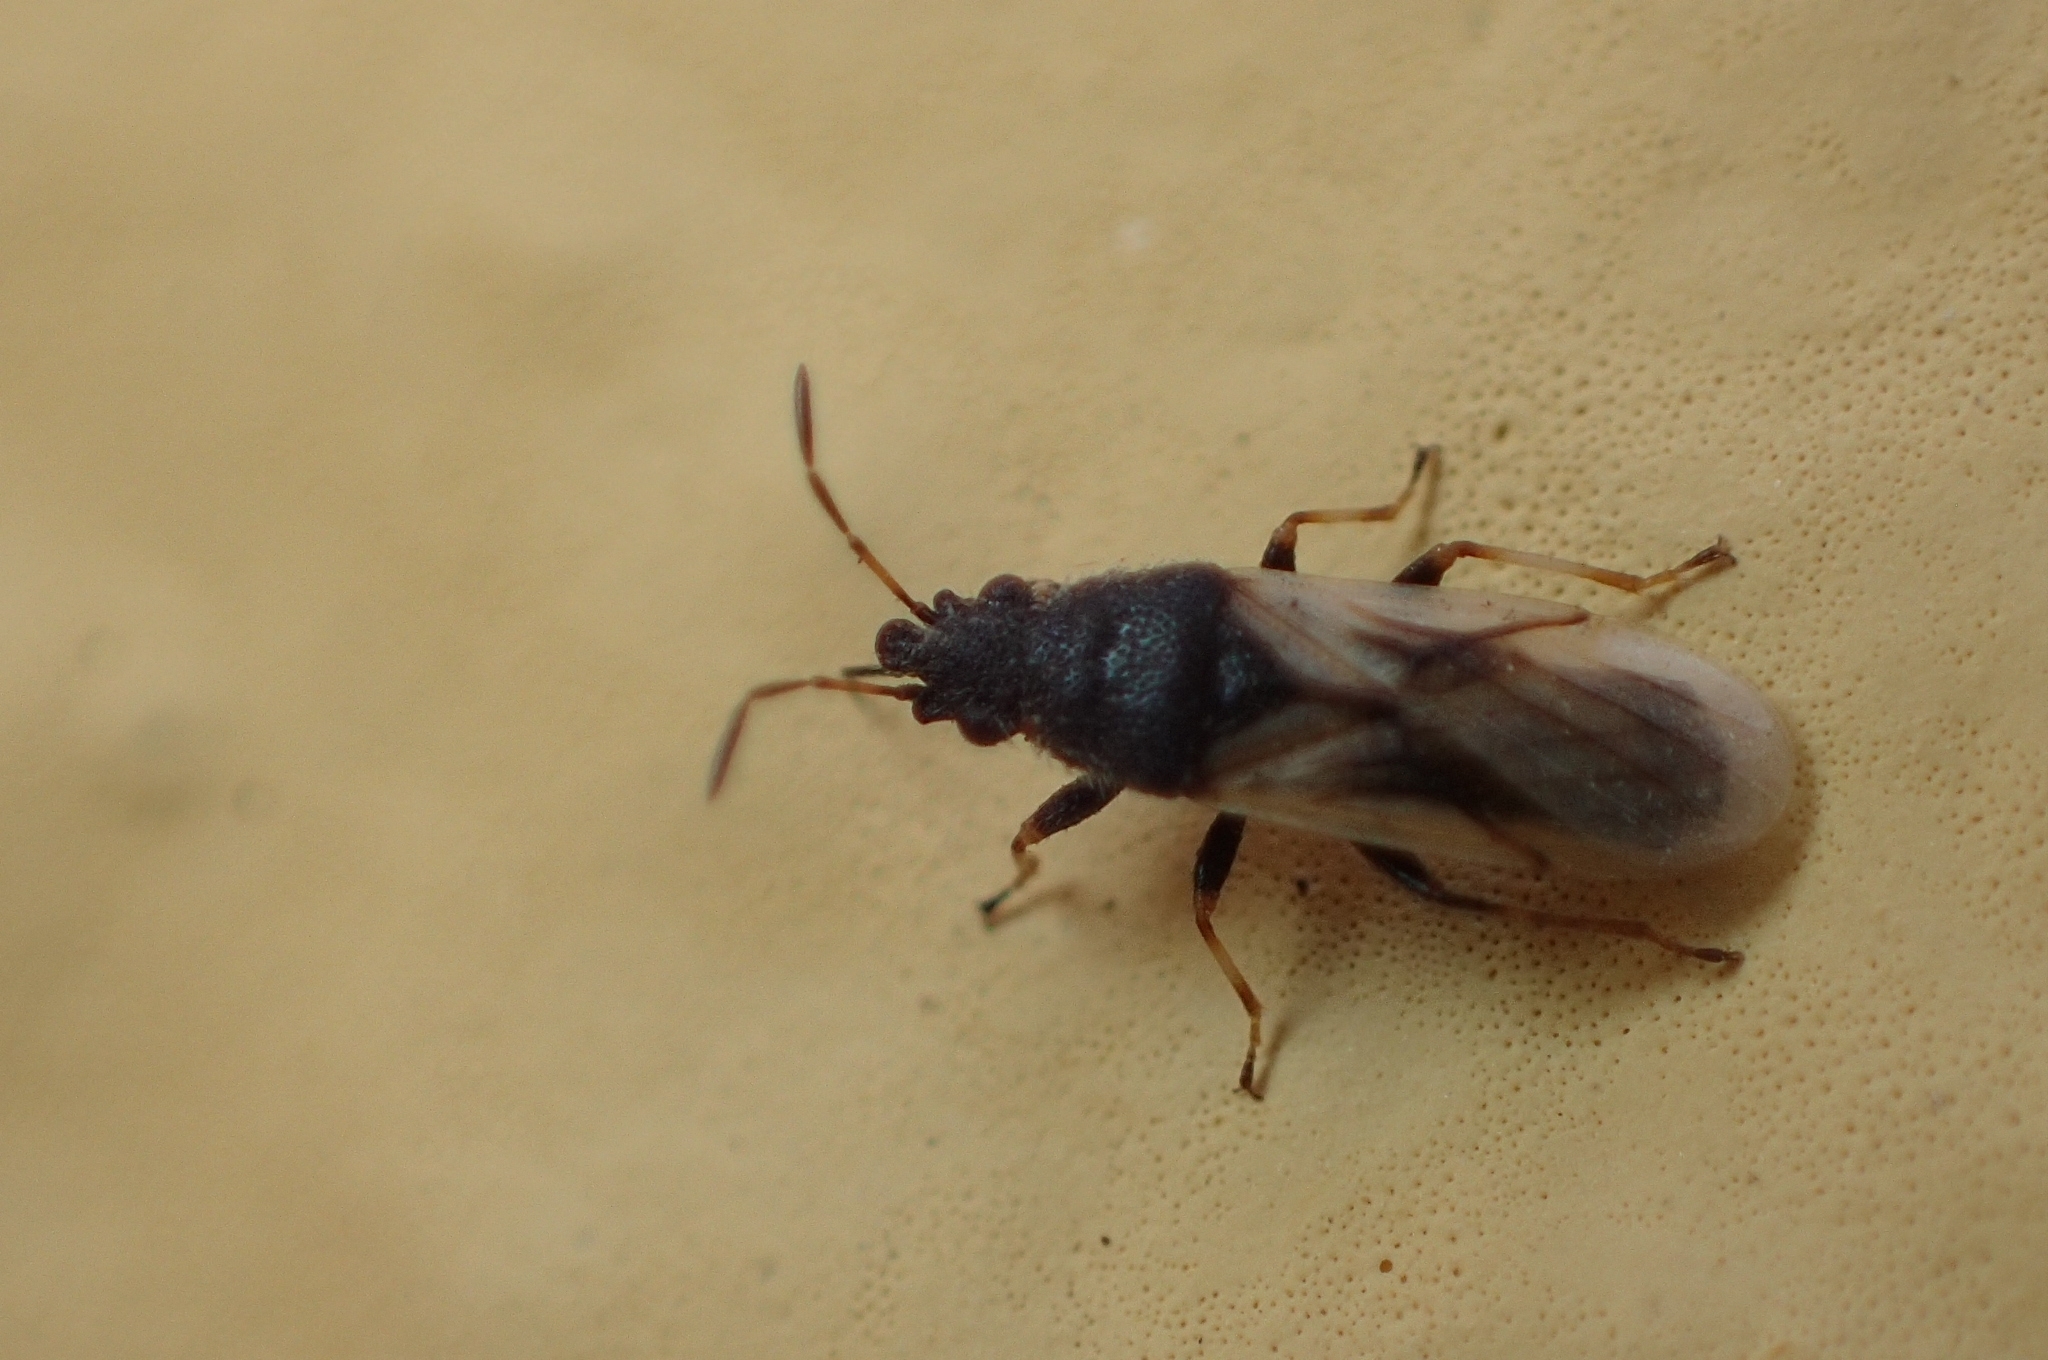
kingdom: Animalia
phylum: Arthropoda
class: Insecta
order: Hemiptera
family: Oxycarenidae
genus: Metopoplax
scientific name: Metopoplax ditomoides
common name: Seed bug
